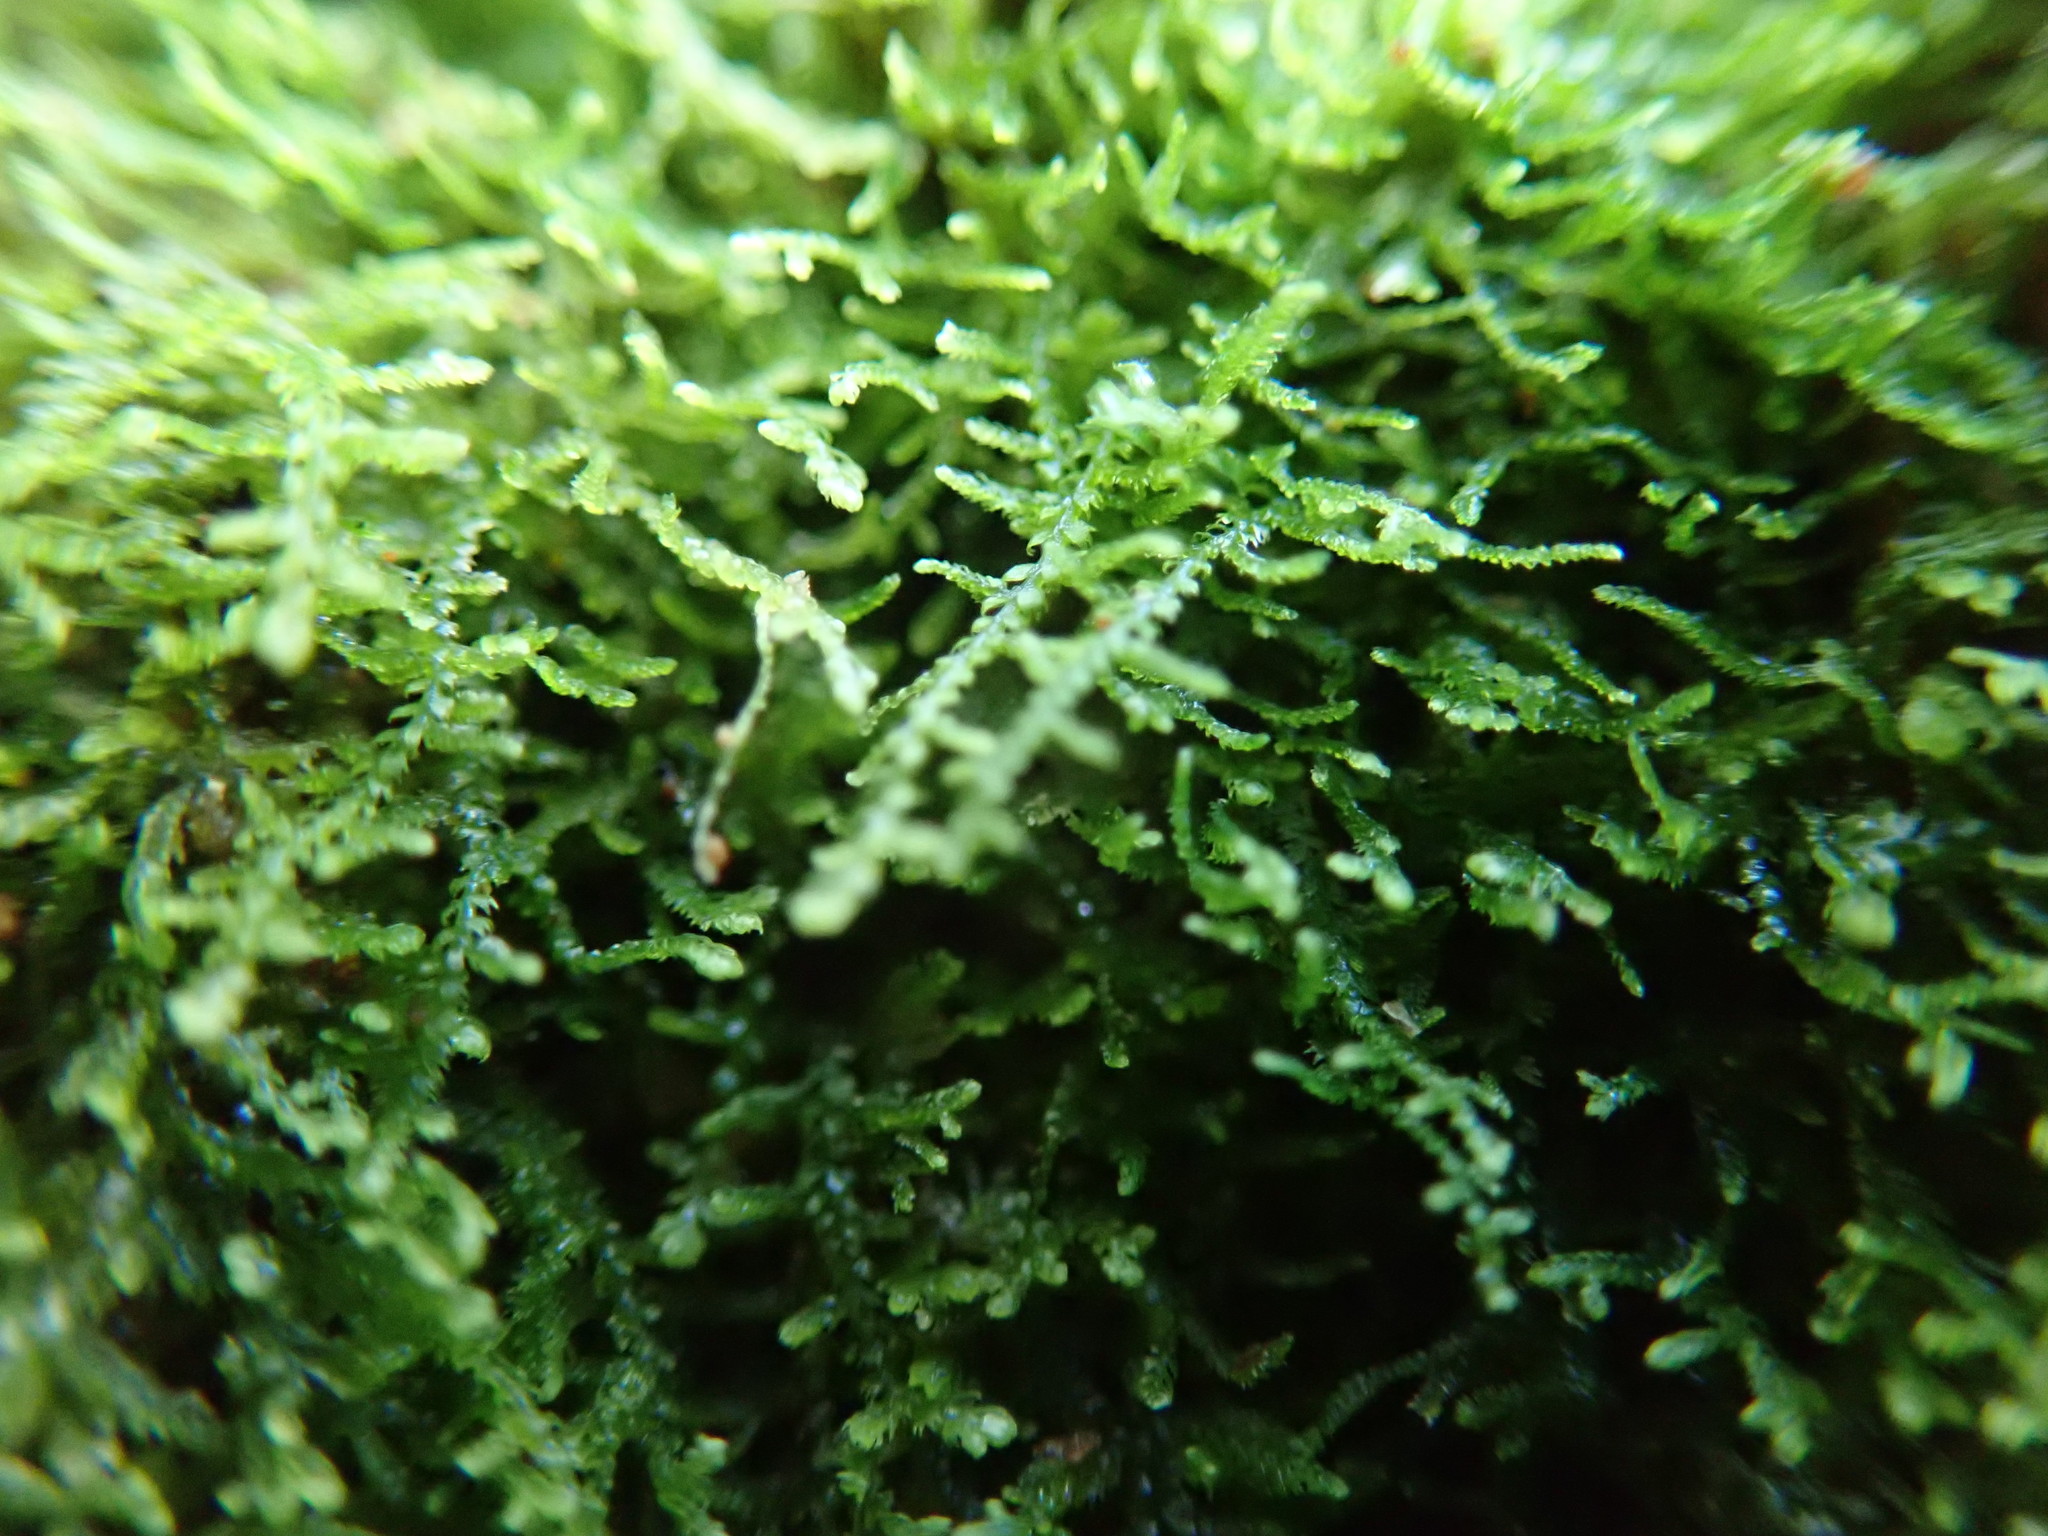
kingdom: Plantae
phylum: Marchantiophyta
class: Jungermanniopsida
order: Jungermanniales
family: Lepidoziaceae
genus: Lepidozia
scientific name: Lepidozia reptans
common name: Creeping fingerwort
